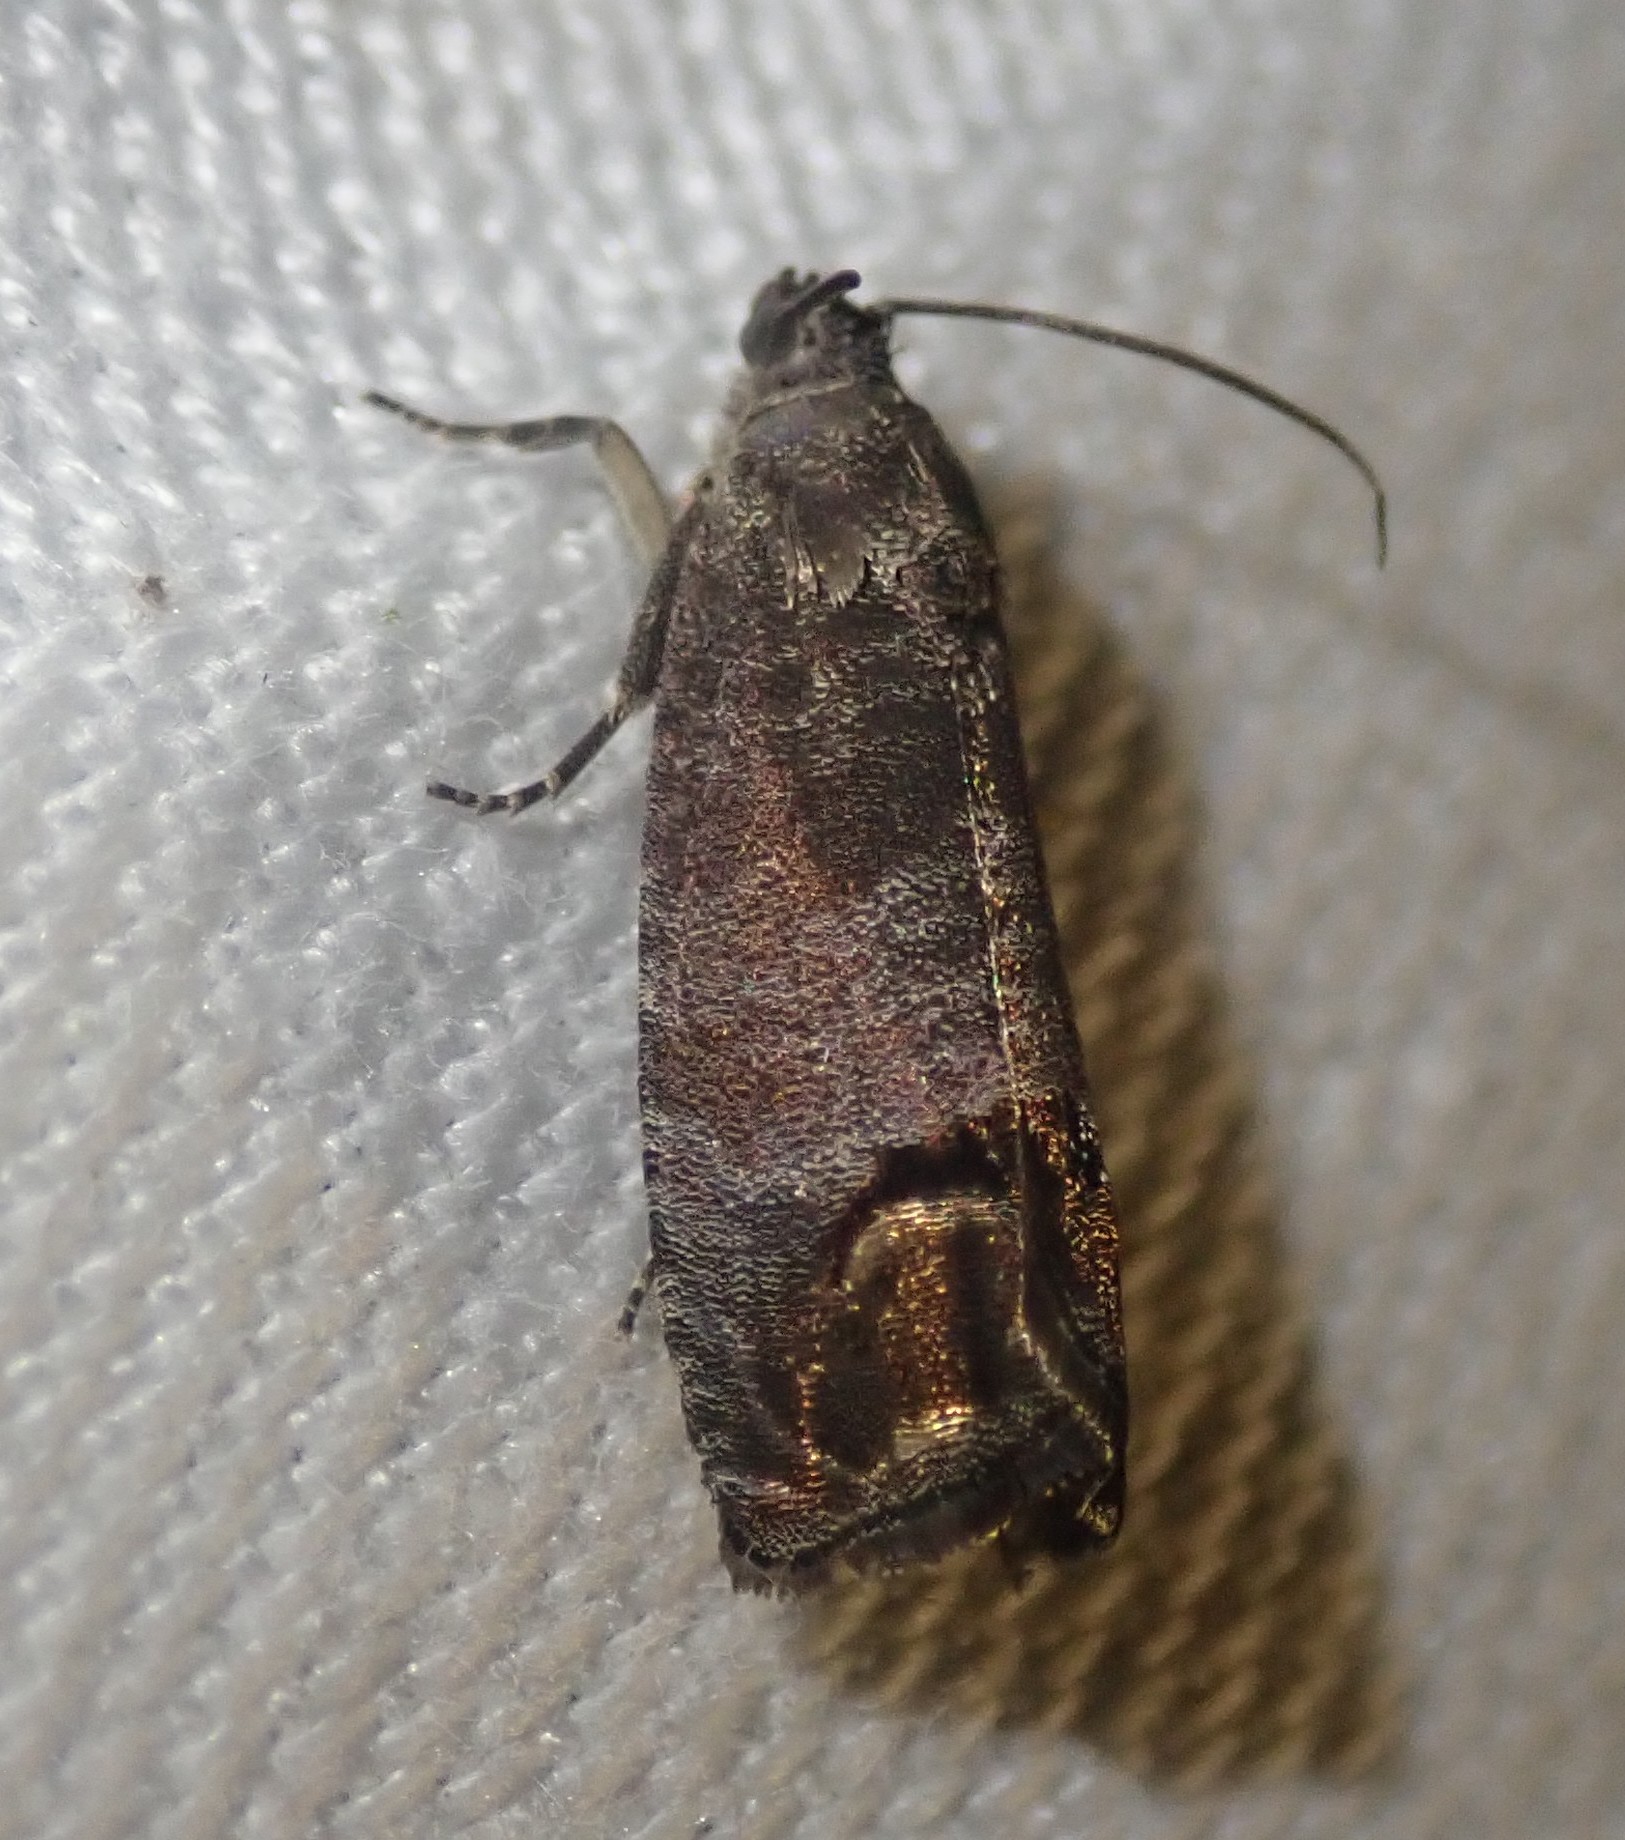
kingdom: Animalia
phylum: Arthropoda
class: Insecta
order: Lepidoptera
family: Tortricidae
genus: Cydia
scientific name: Cydia pomonella
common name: Codling moth
